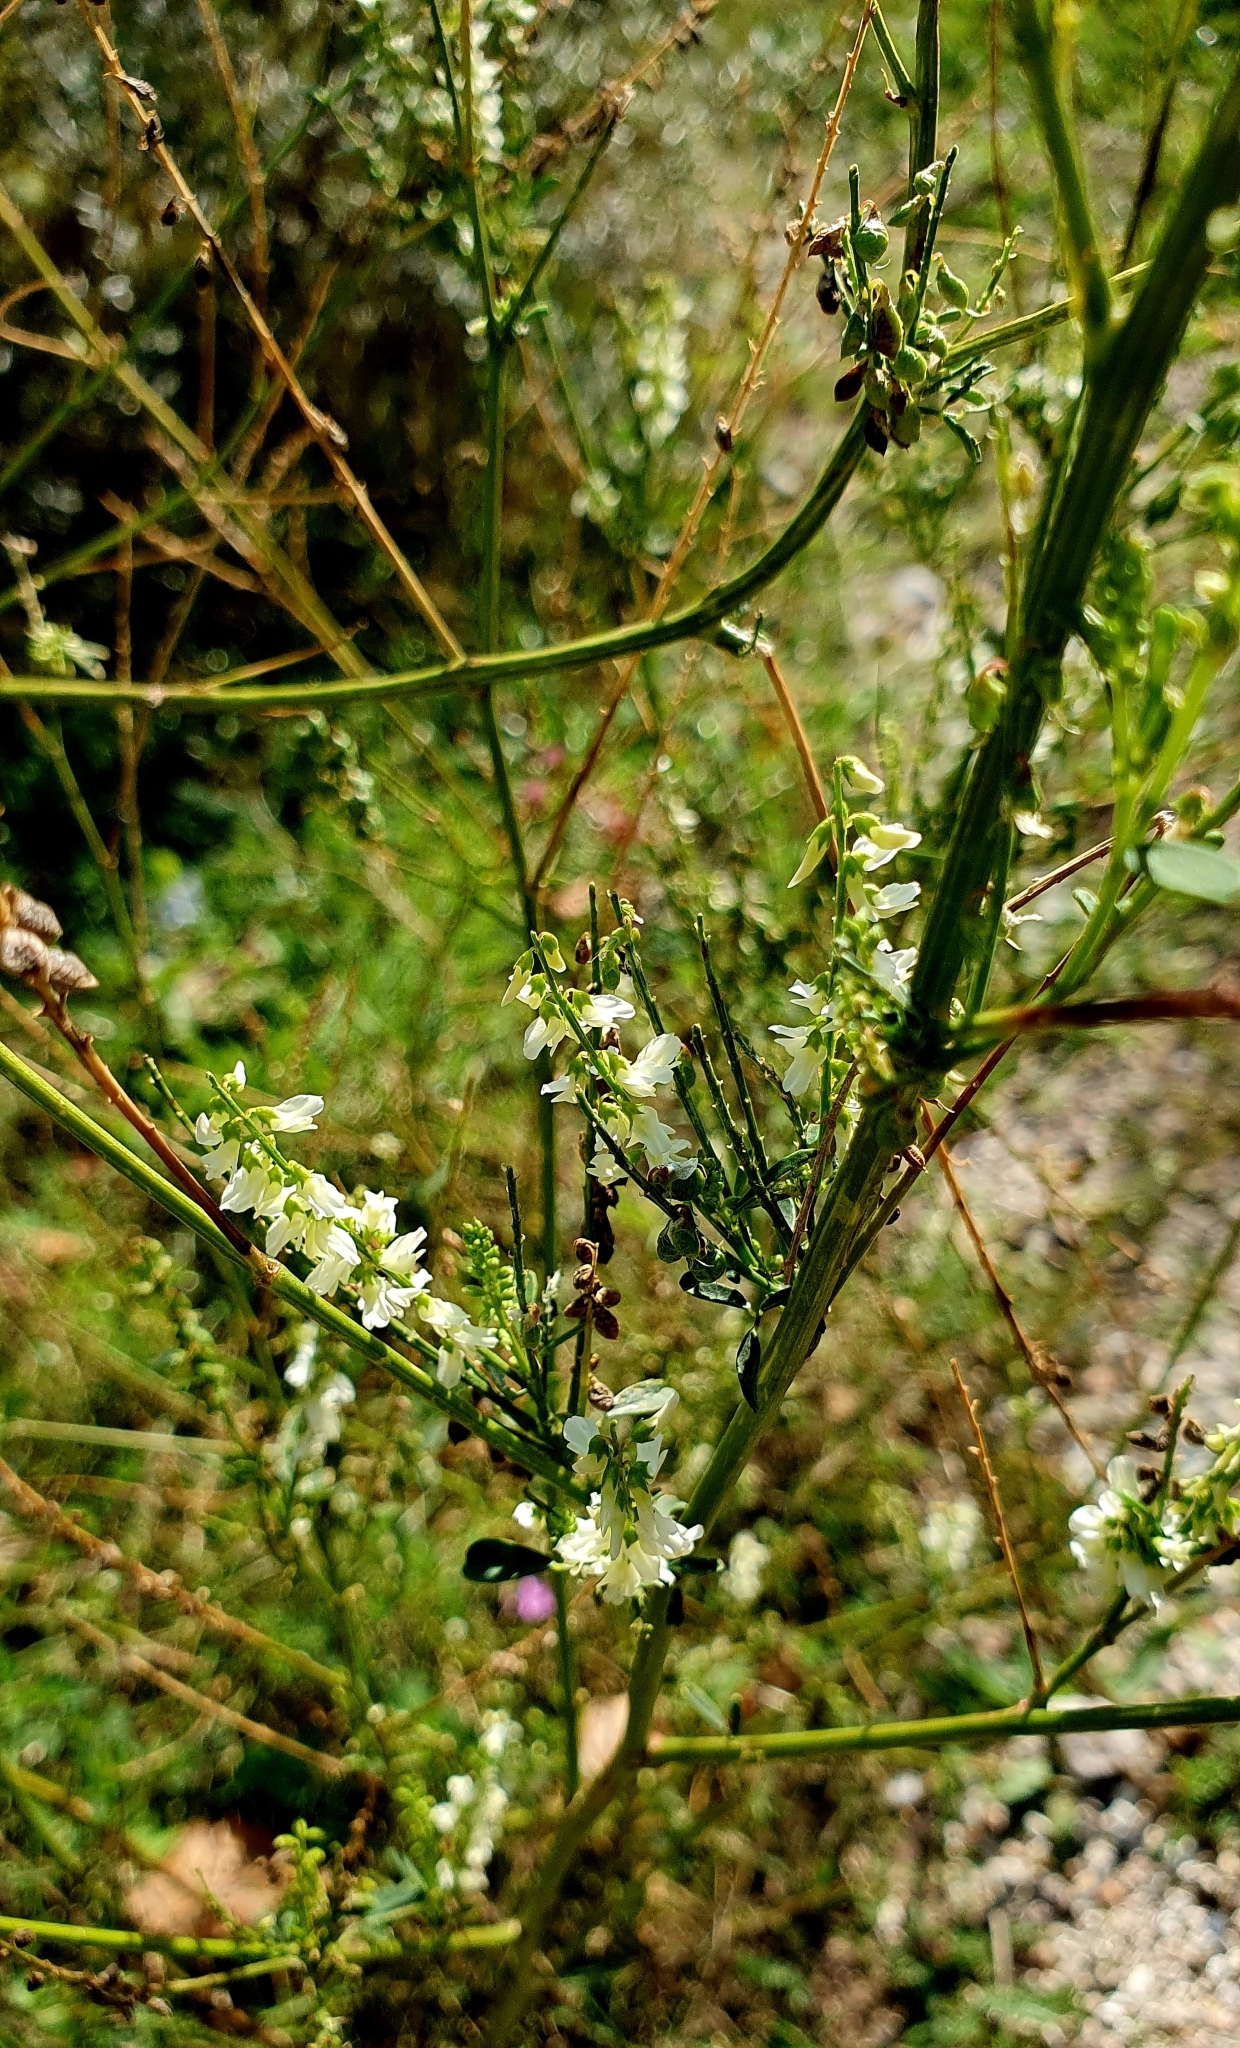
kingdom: Plantae
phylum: Tracheophyta
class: Magnoliopsida
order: Fabales
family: Fabaceae
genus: Melilotus
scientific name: Melilotus albus
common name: White melilot
